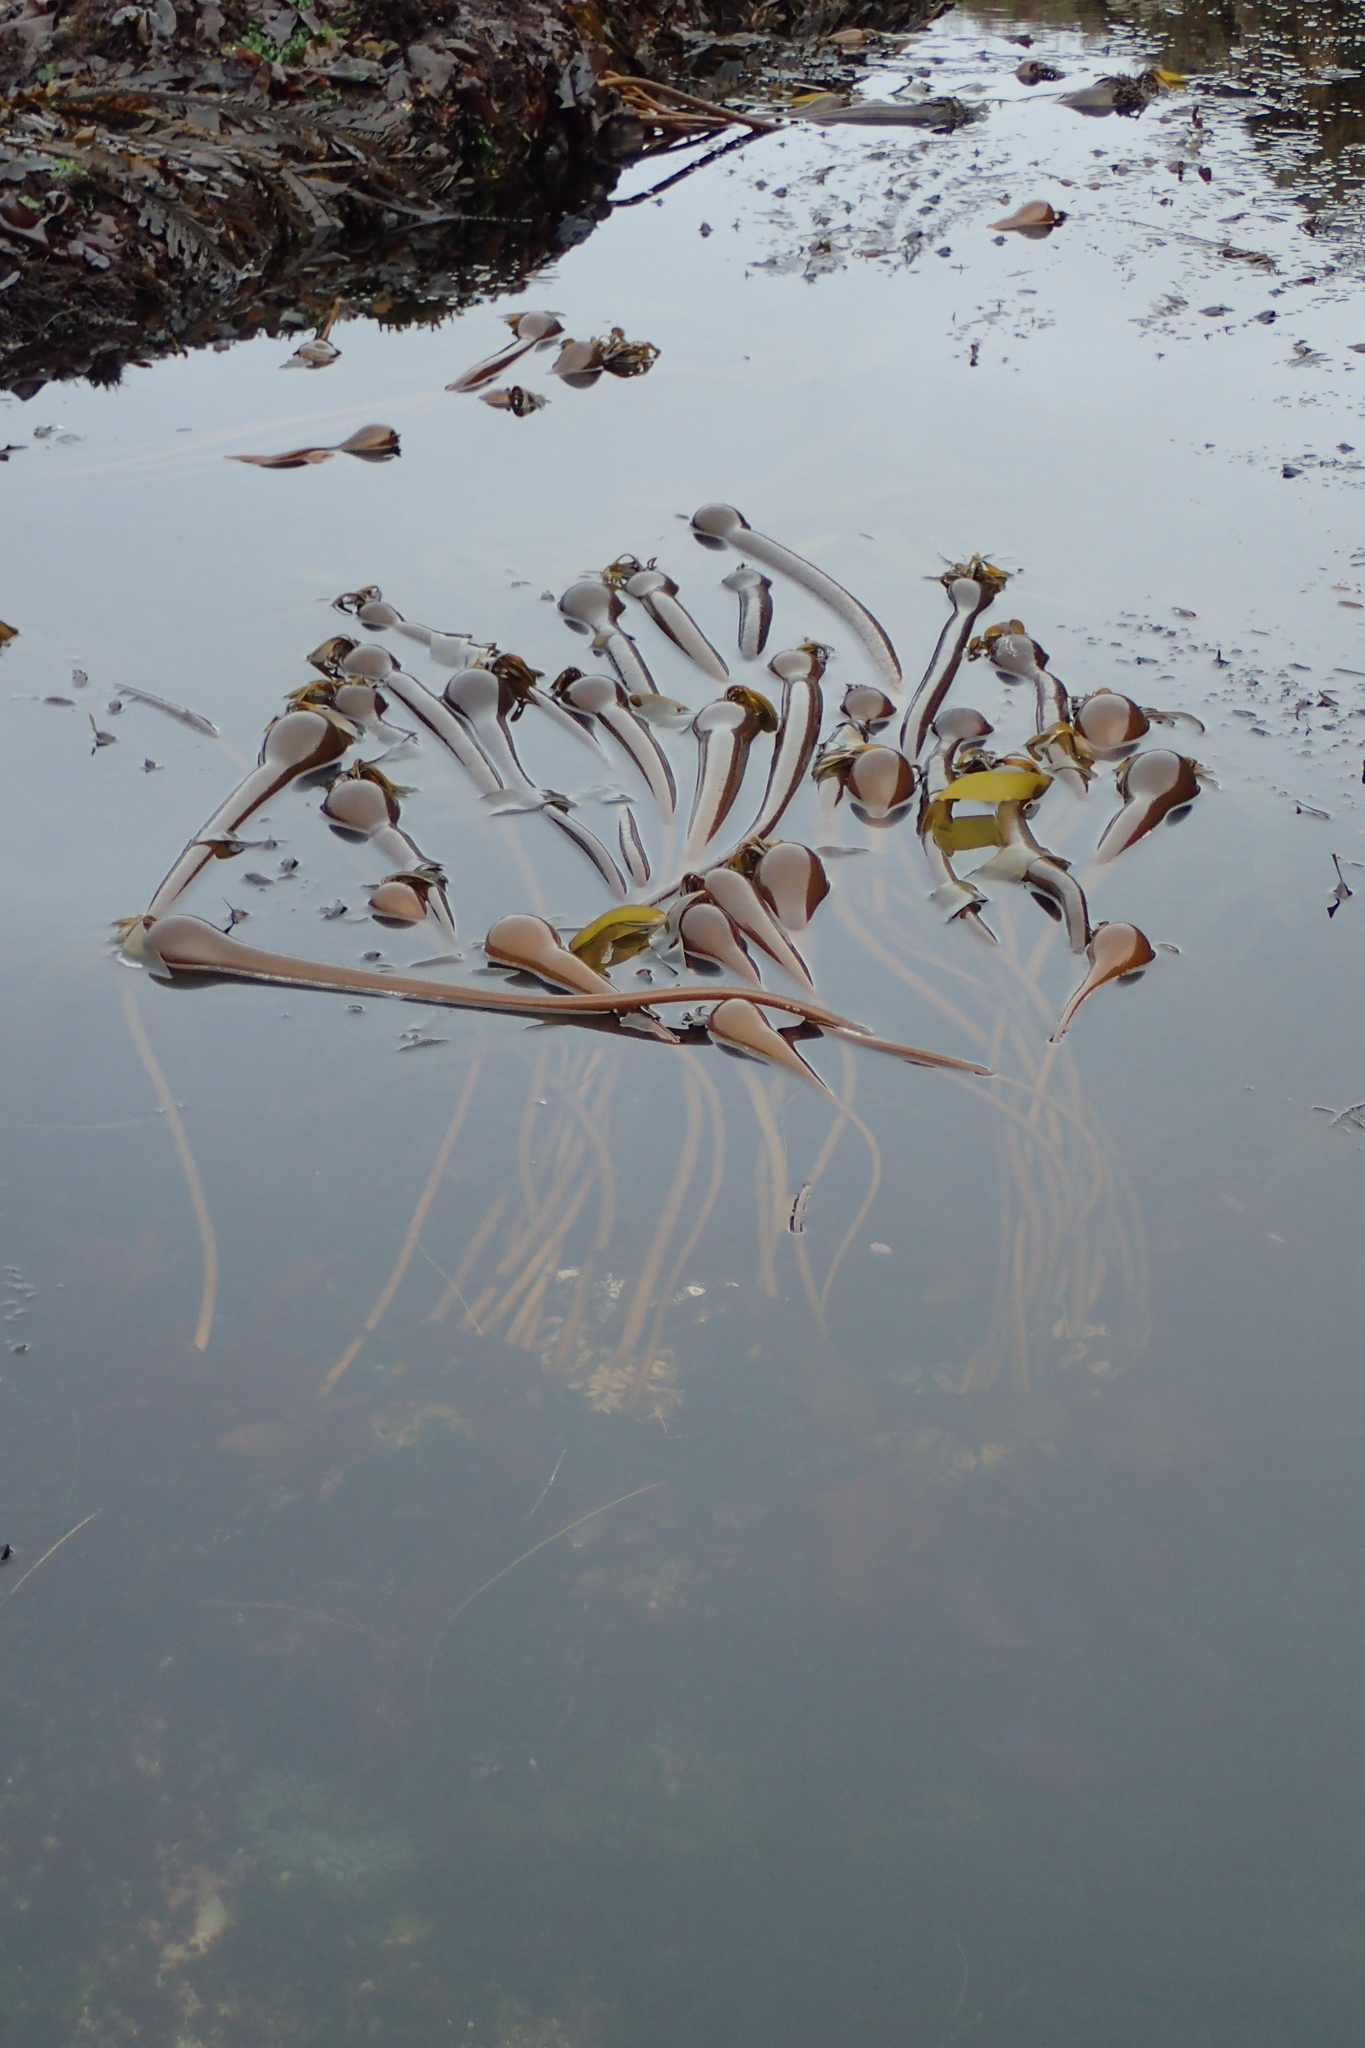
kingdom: Chromista
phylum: Ochrophyta
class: Phaeophyceae
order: Laminariales
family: Laminariaceae
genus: Nereocystis
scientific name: Nereocystis luetkeana
